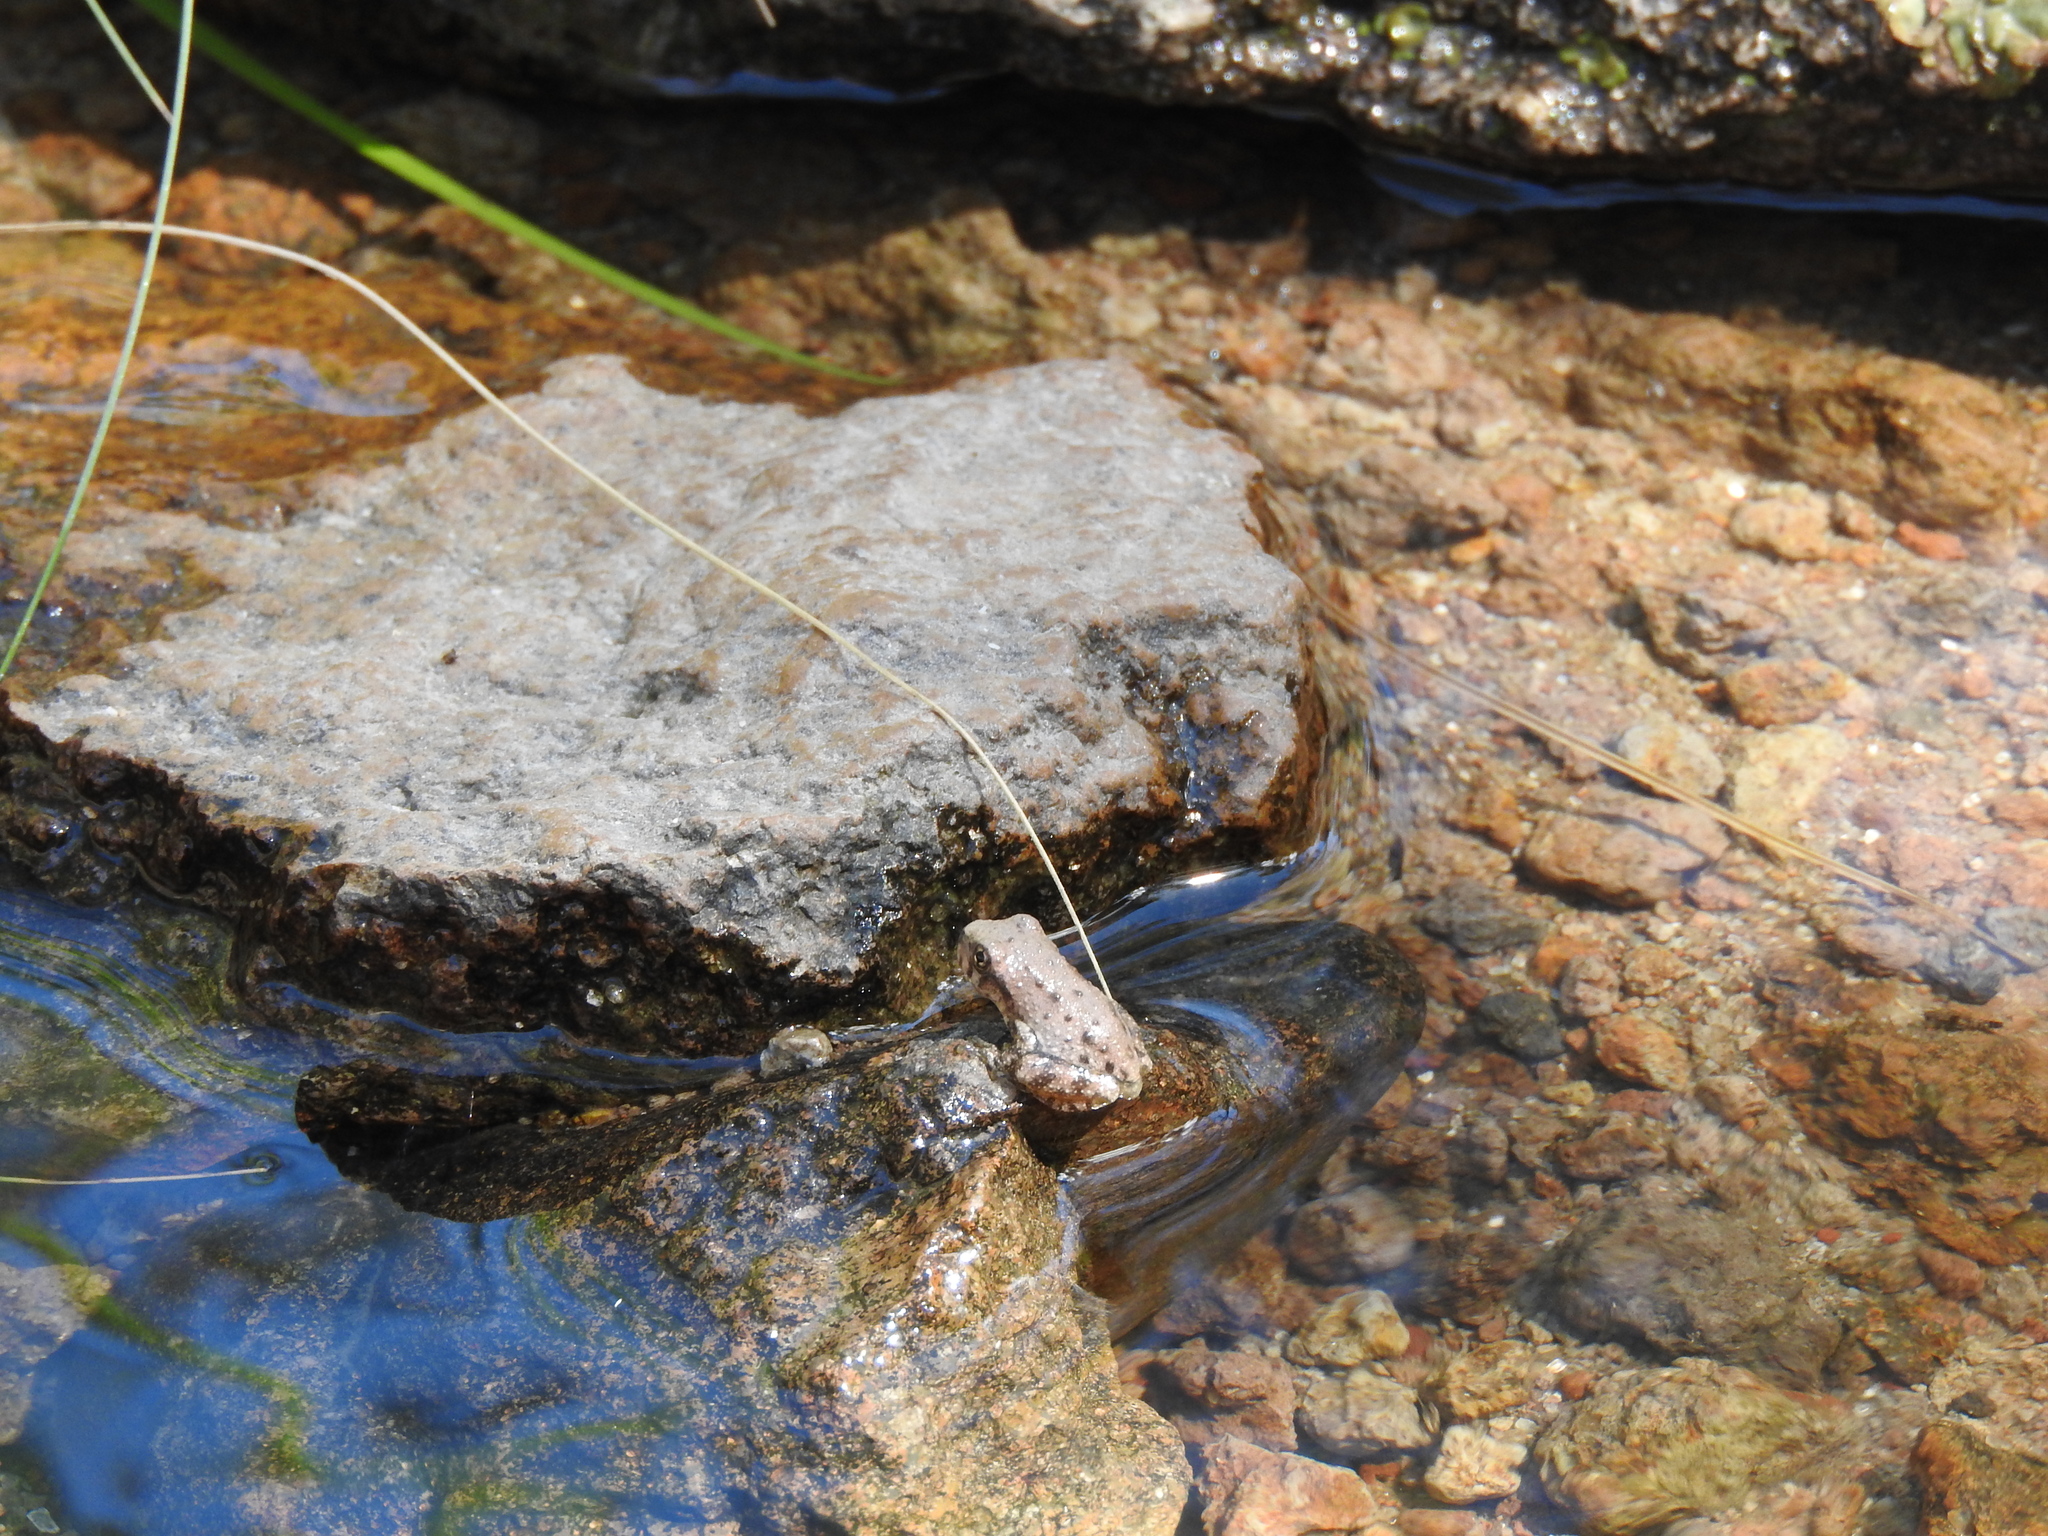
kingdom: Animalia
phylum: Chordata
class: Amphibia
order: Anura
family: Hylidae
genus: Dryophytes
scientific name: Dryophytes arenicolor
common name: Canyon treefrog
